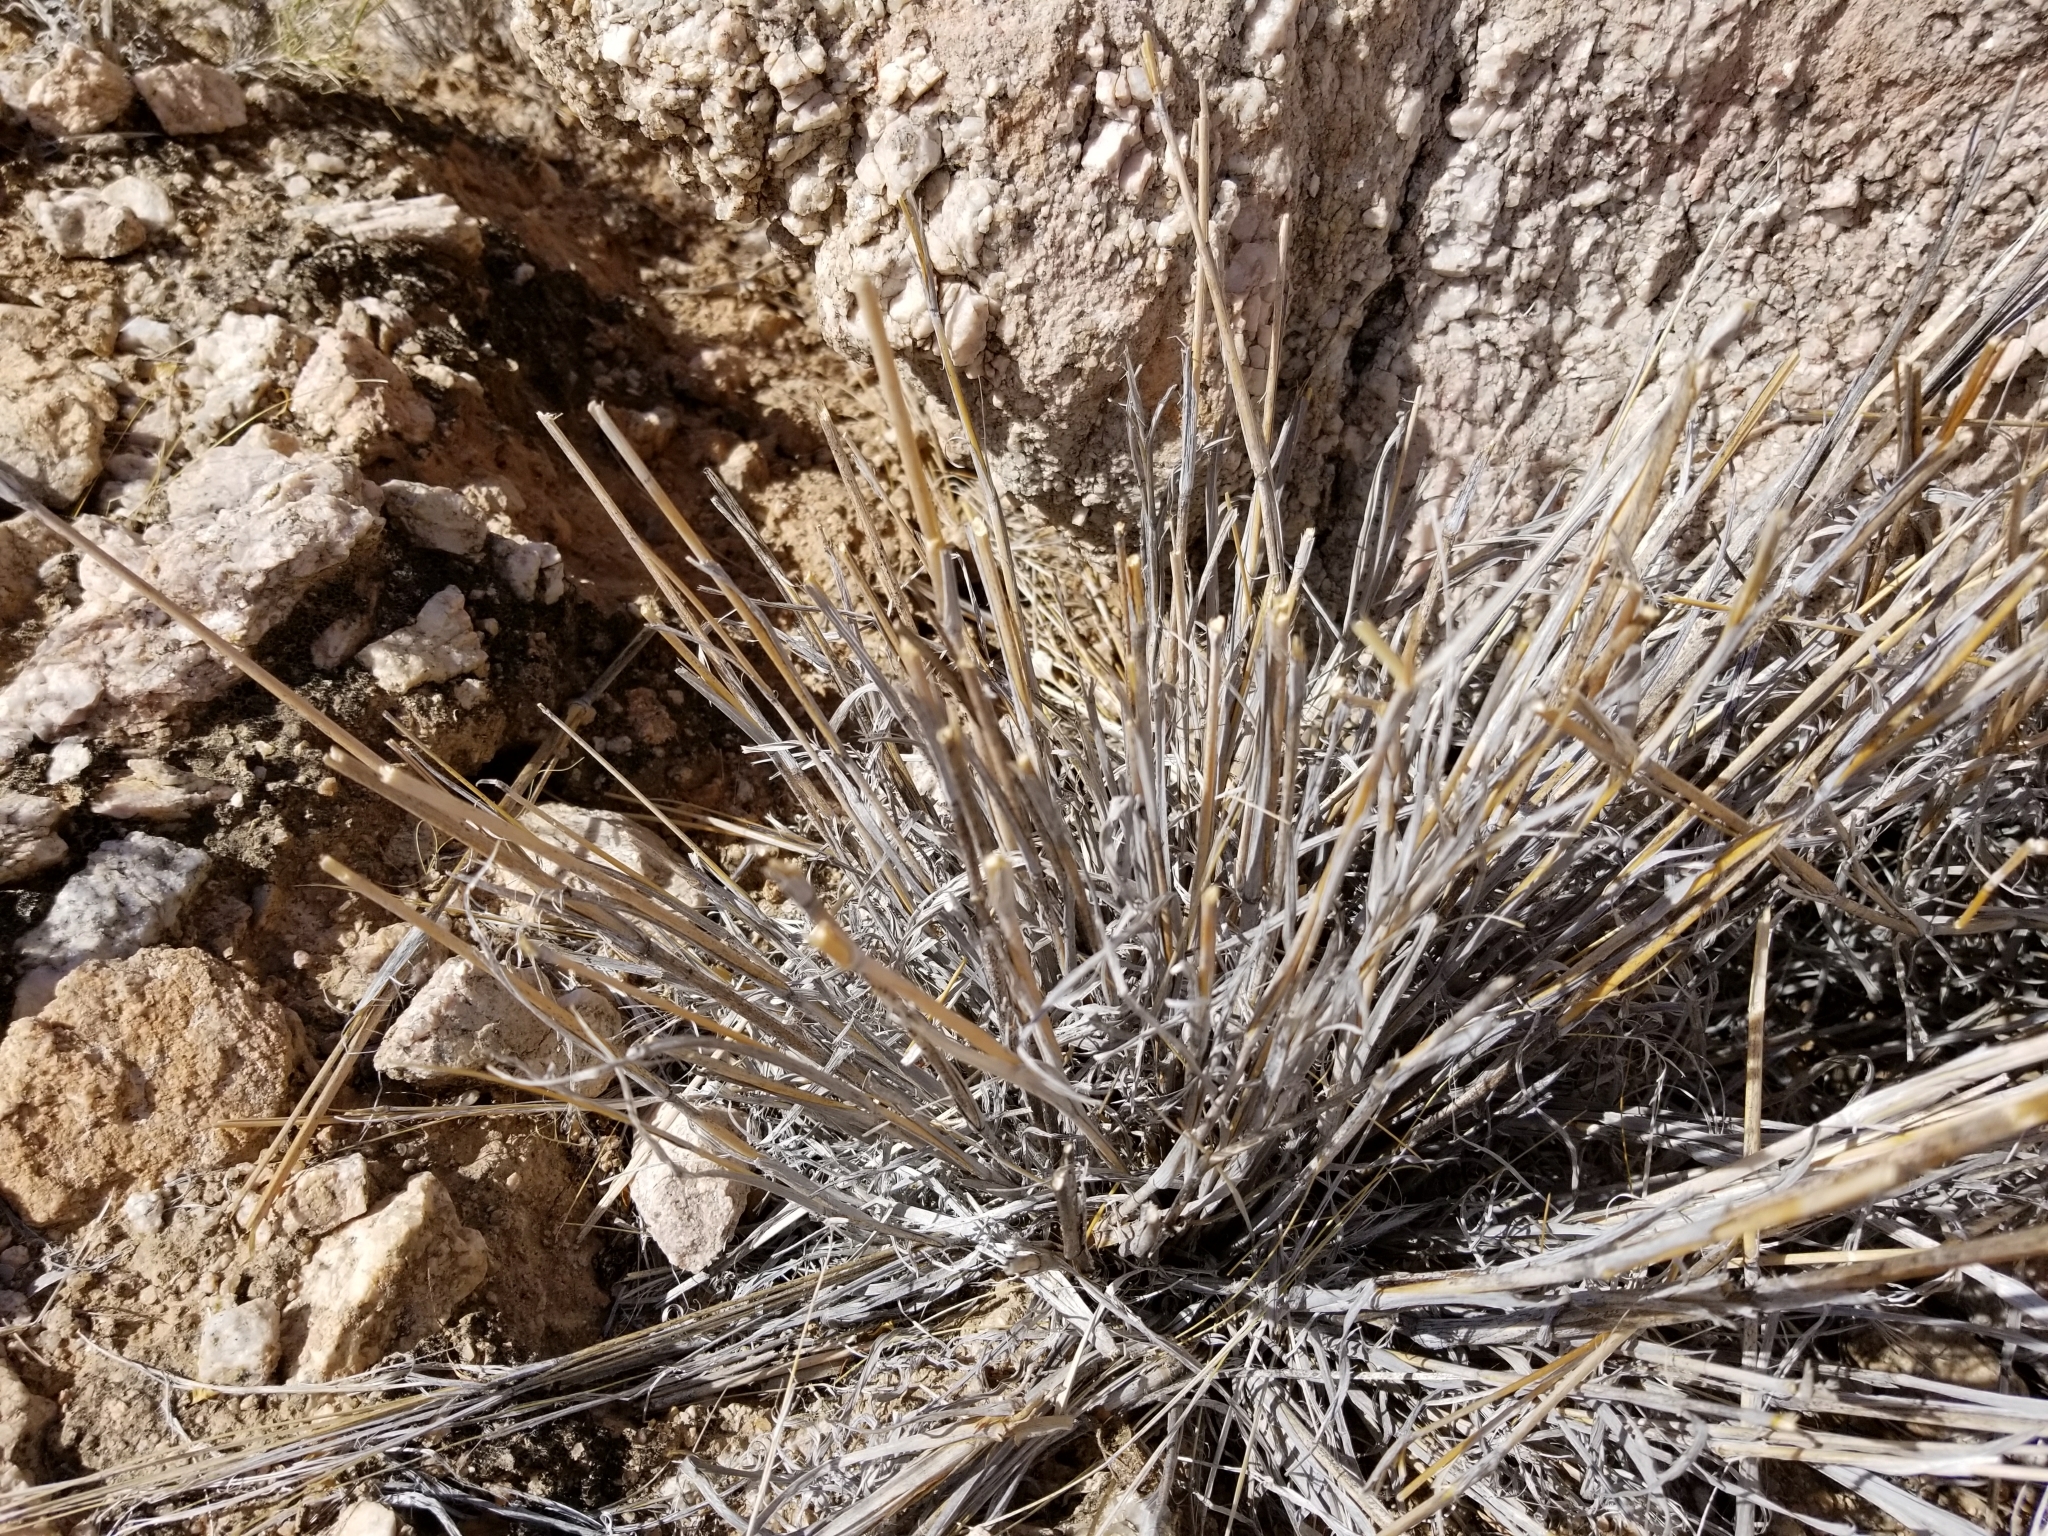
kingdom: Animalia
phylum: Chordata
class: Mammalia
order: Artiodactyla
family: Bovidae
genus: Ovis
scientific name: Ovis canadensis
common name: Bighorn sheep
